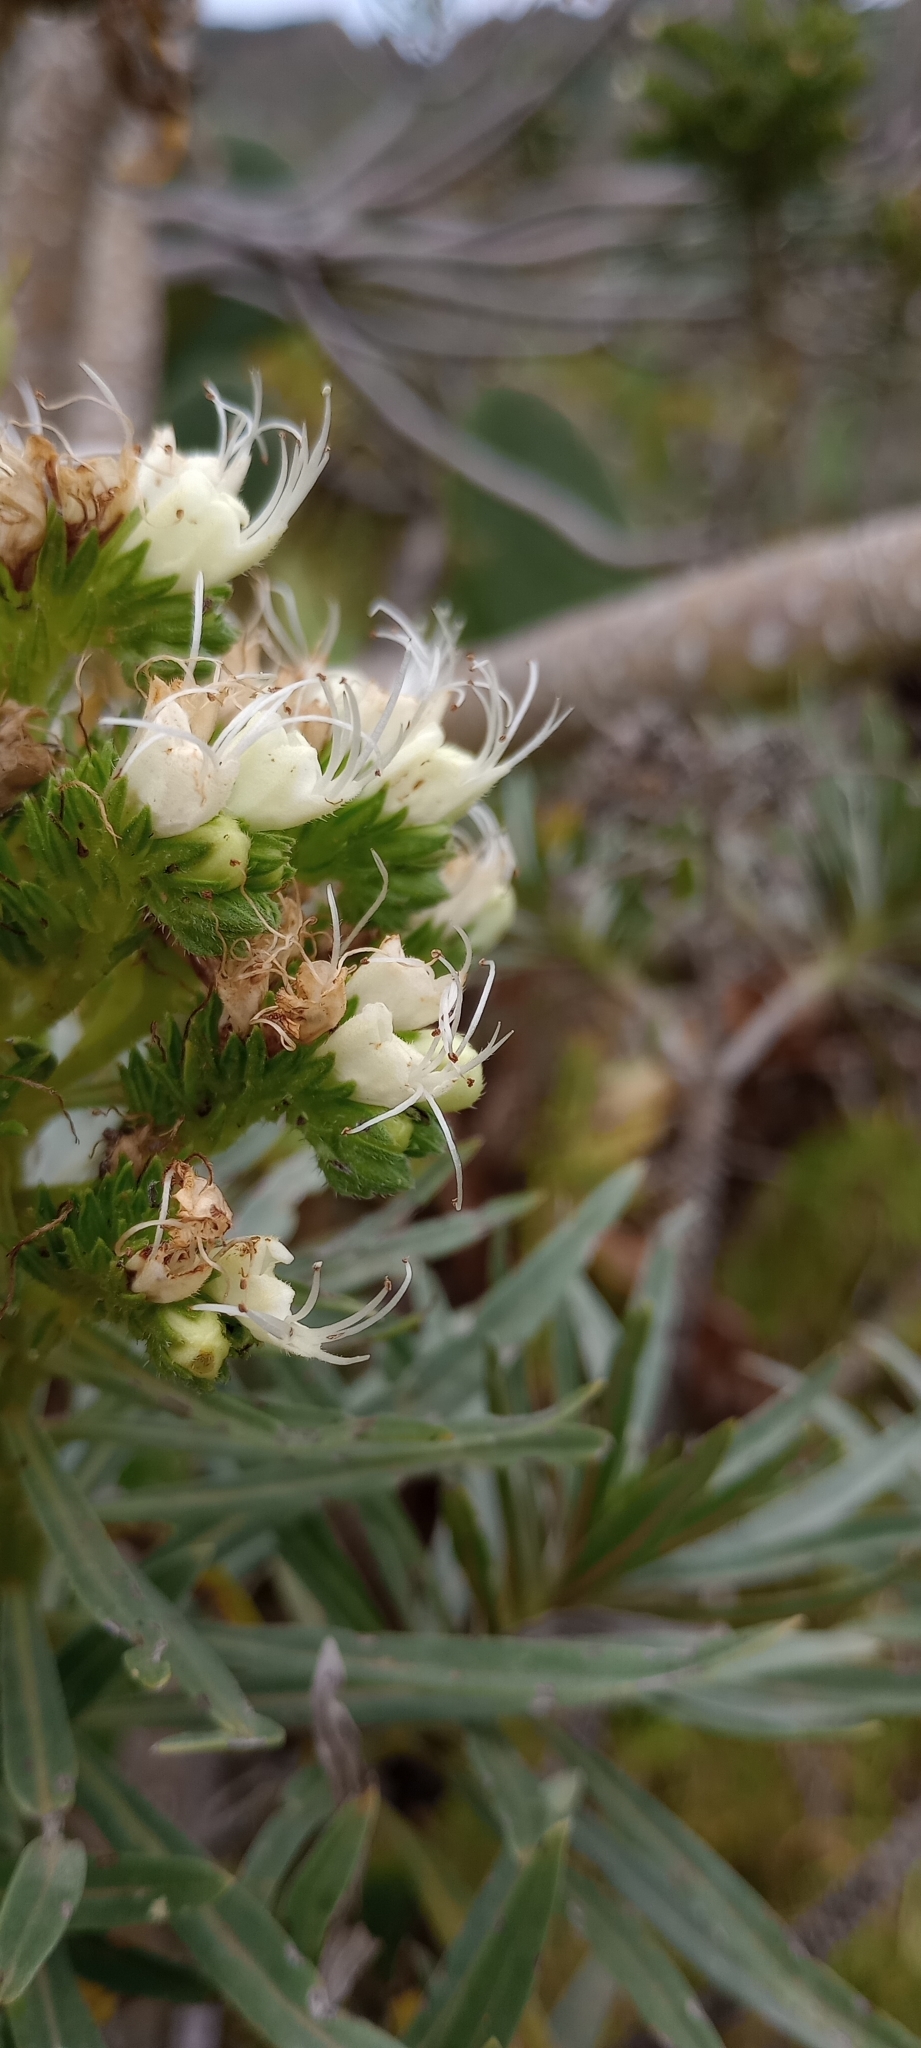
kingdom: Plantae
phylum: Tracheophyta
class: Magnoliopsida
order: Boraginales
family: Boraginaceae
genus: Echium
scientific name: Echium leucophaeum
